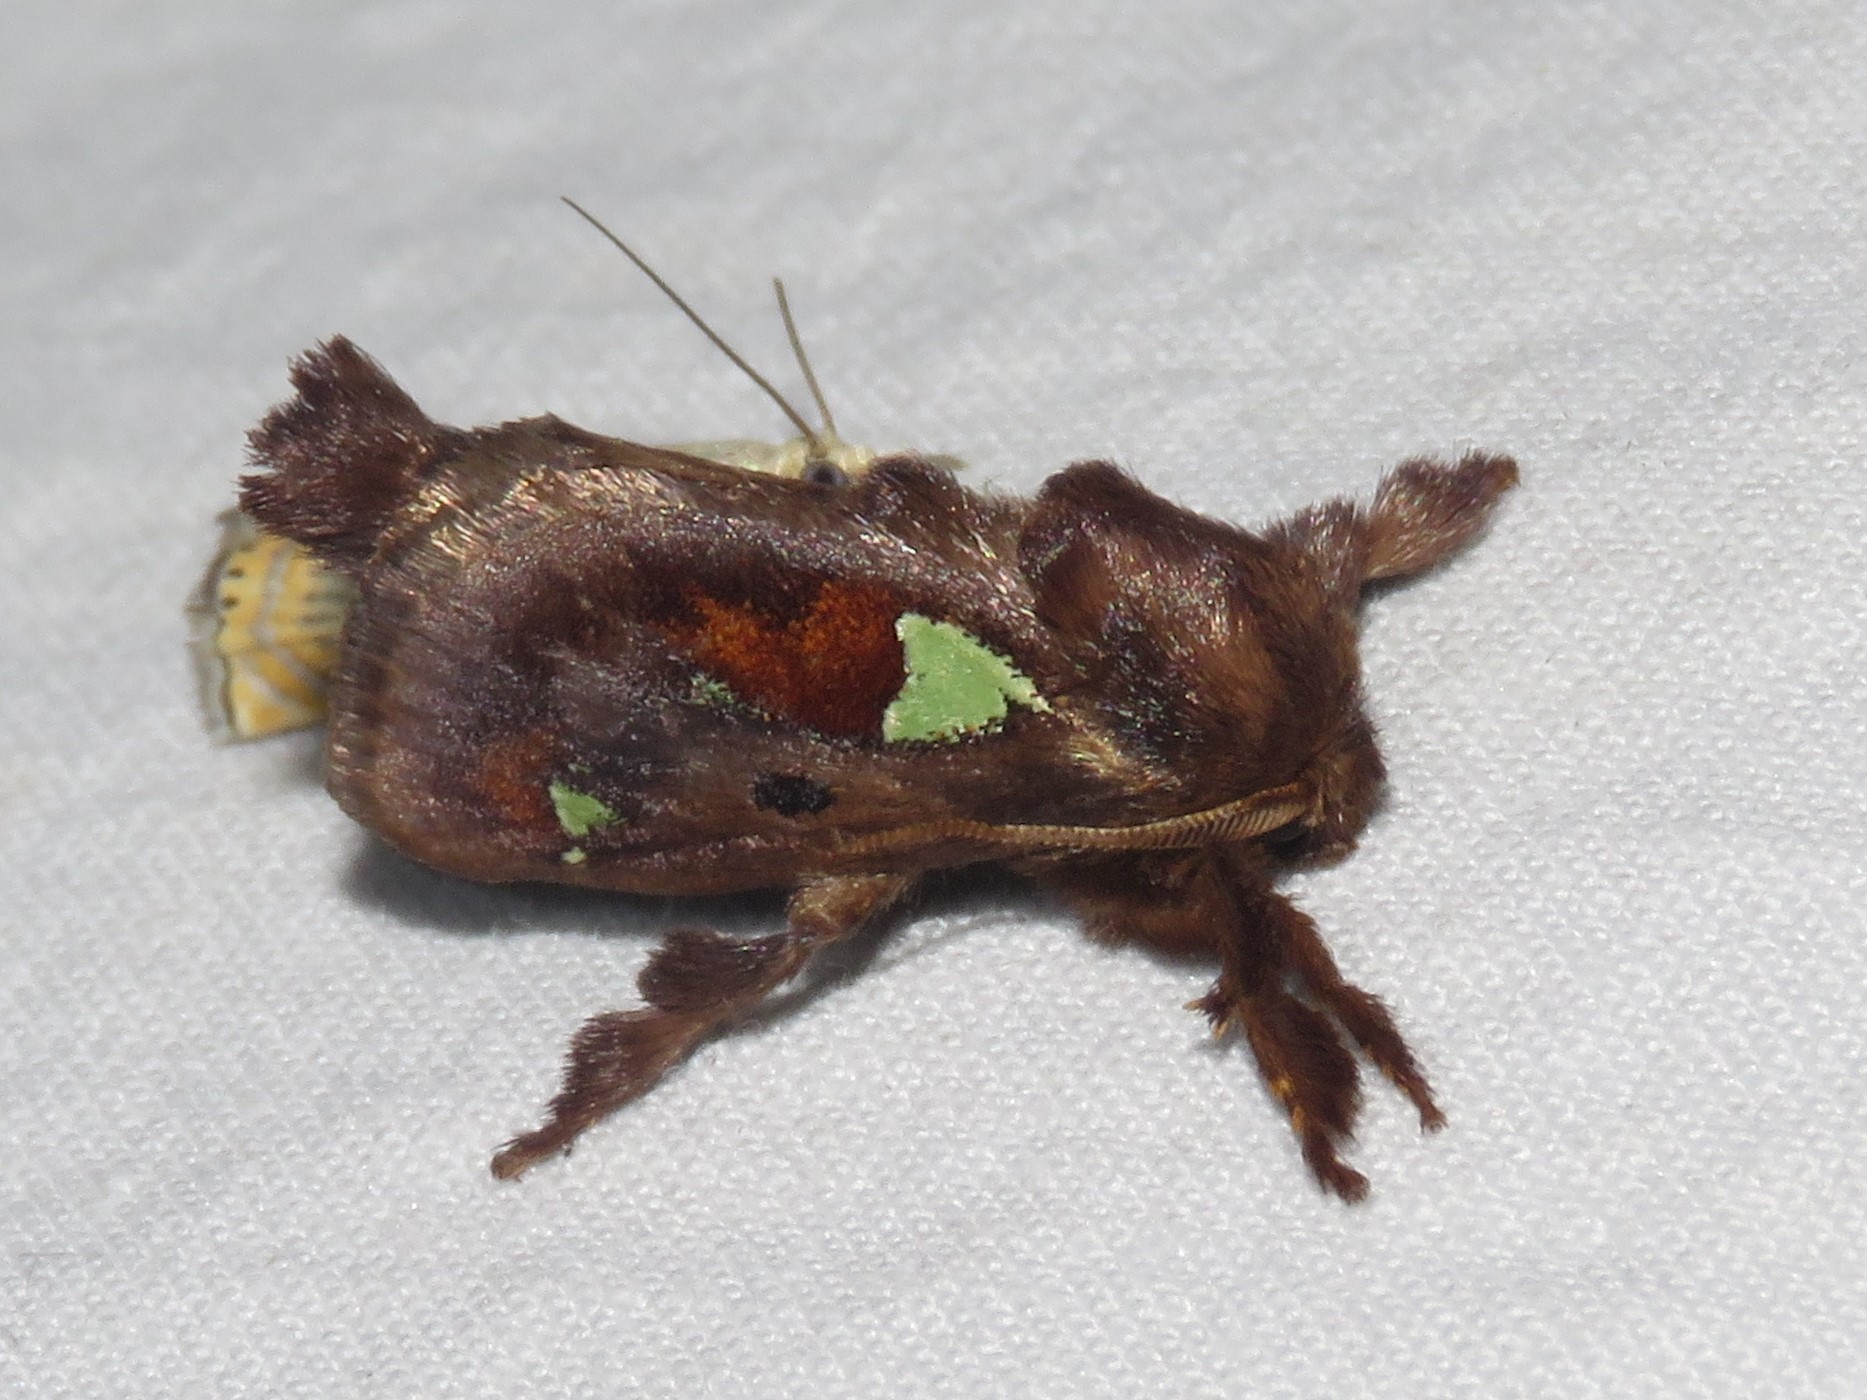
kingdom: Animalia
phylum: Arthropoda
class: Insecta
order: Lepidoptera
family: Limacodidae
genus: Euclea
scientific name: Euclea delphinii
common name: Spiny oak-slug moth
